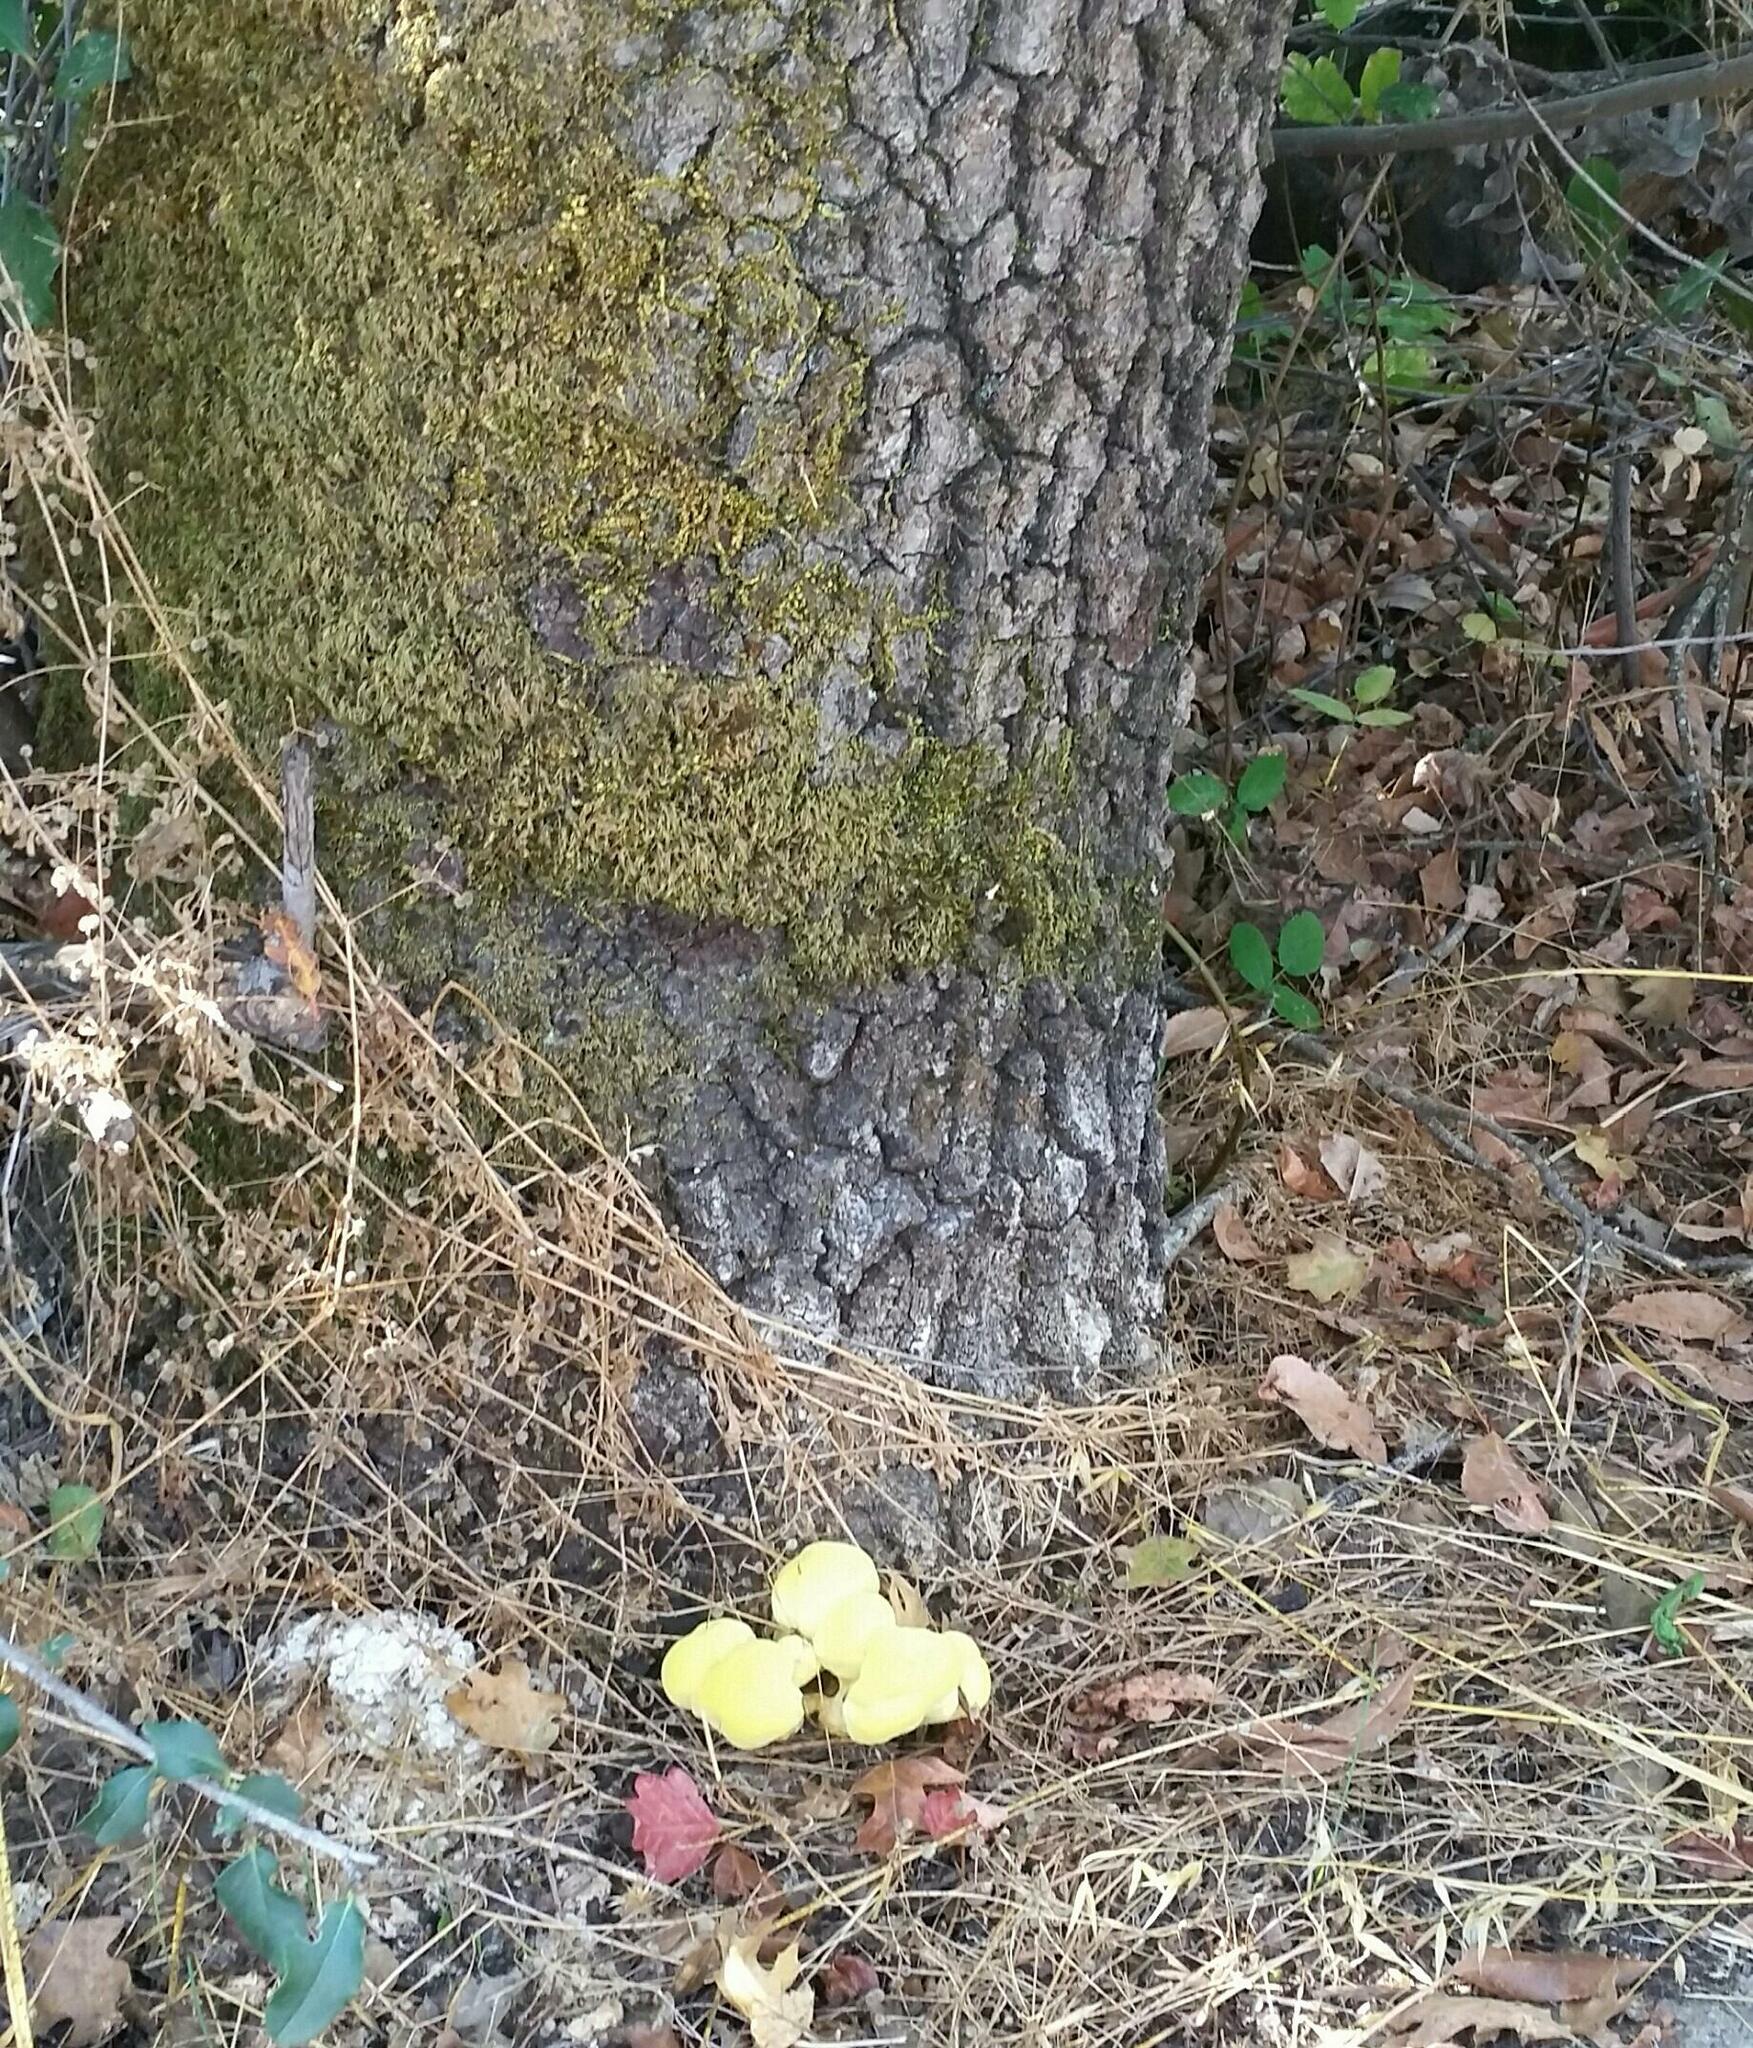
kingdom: Fungi
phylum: Basidiomycota
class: Agaricomycetes
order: Polyporales
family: Laetiporaceae
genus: Laetiporus
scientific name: Laetiporus gilbertsonii
